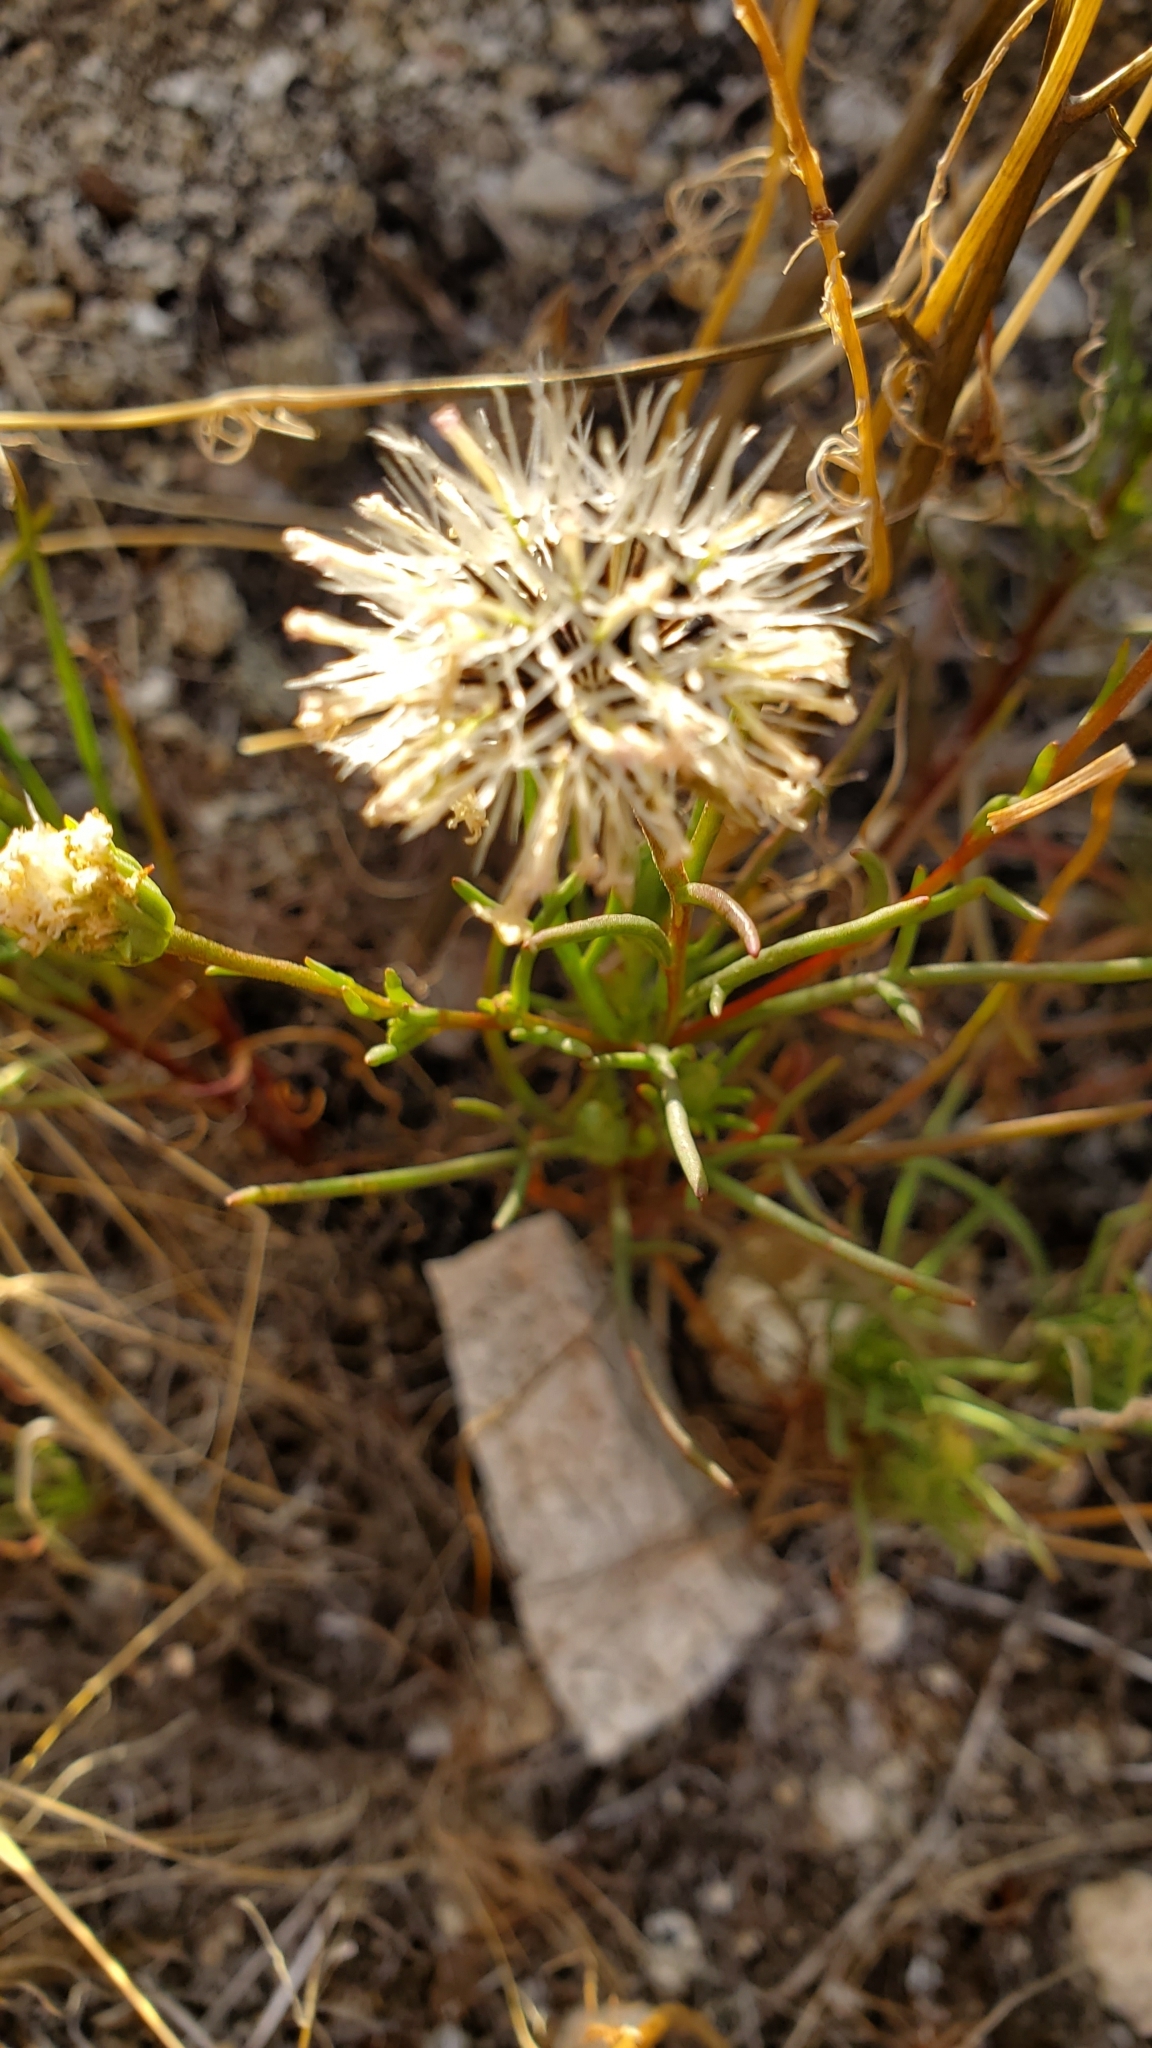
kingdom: Plantae
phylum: Tracheophyta
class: Magnoliopsida
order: Asterales
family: Asteraceae
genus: Chaenactis
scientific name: Chaenactis fremontii
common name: Fremont pincushion
